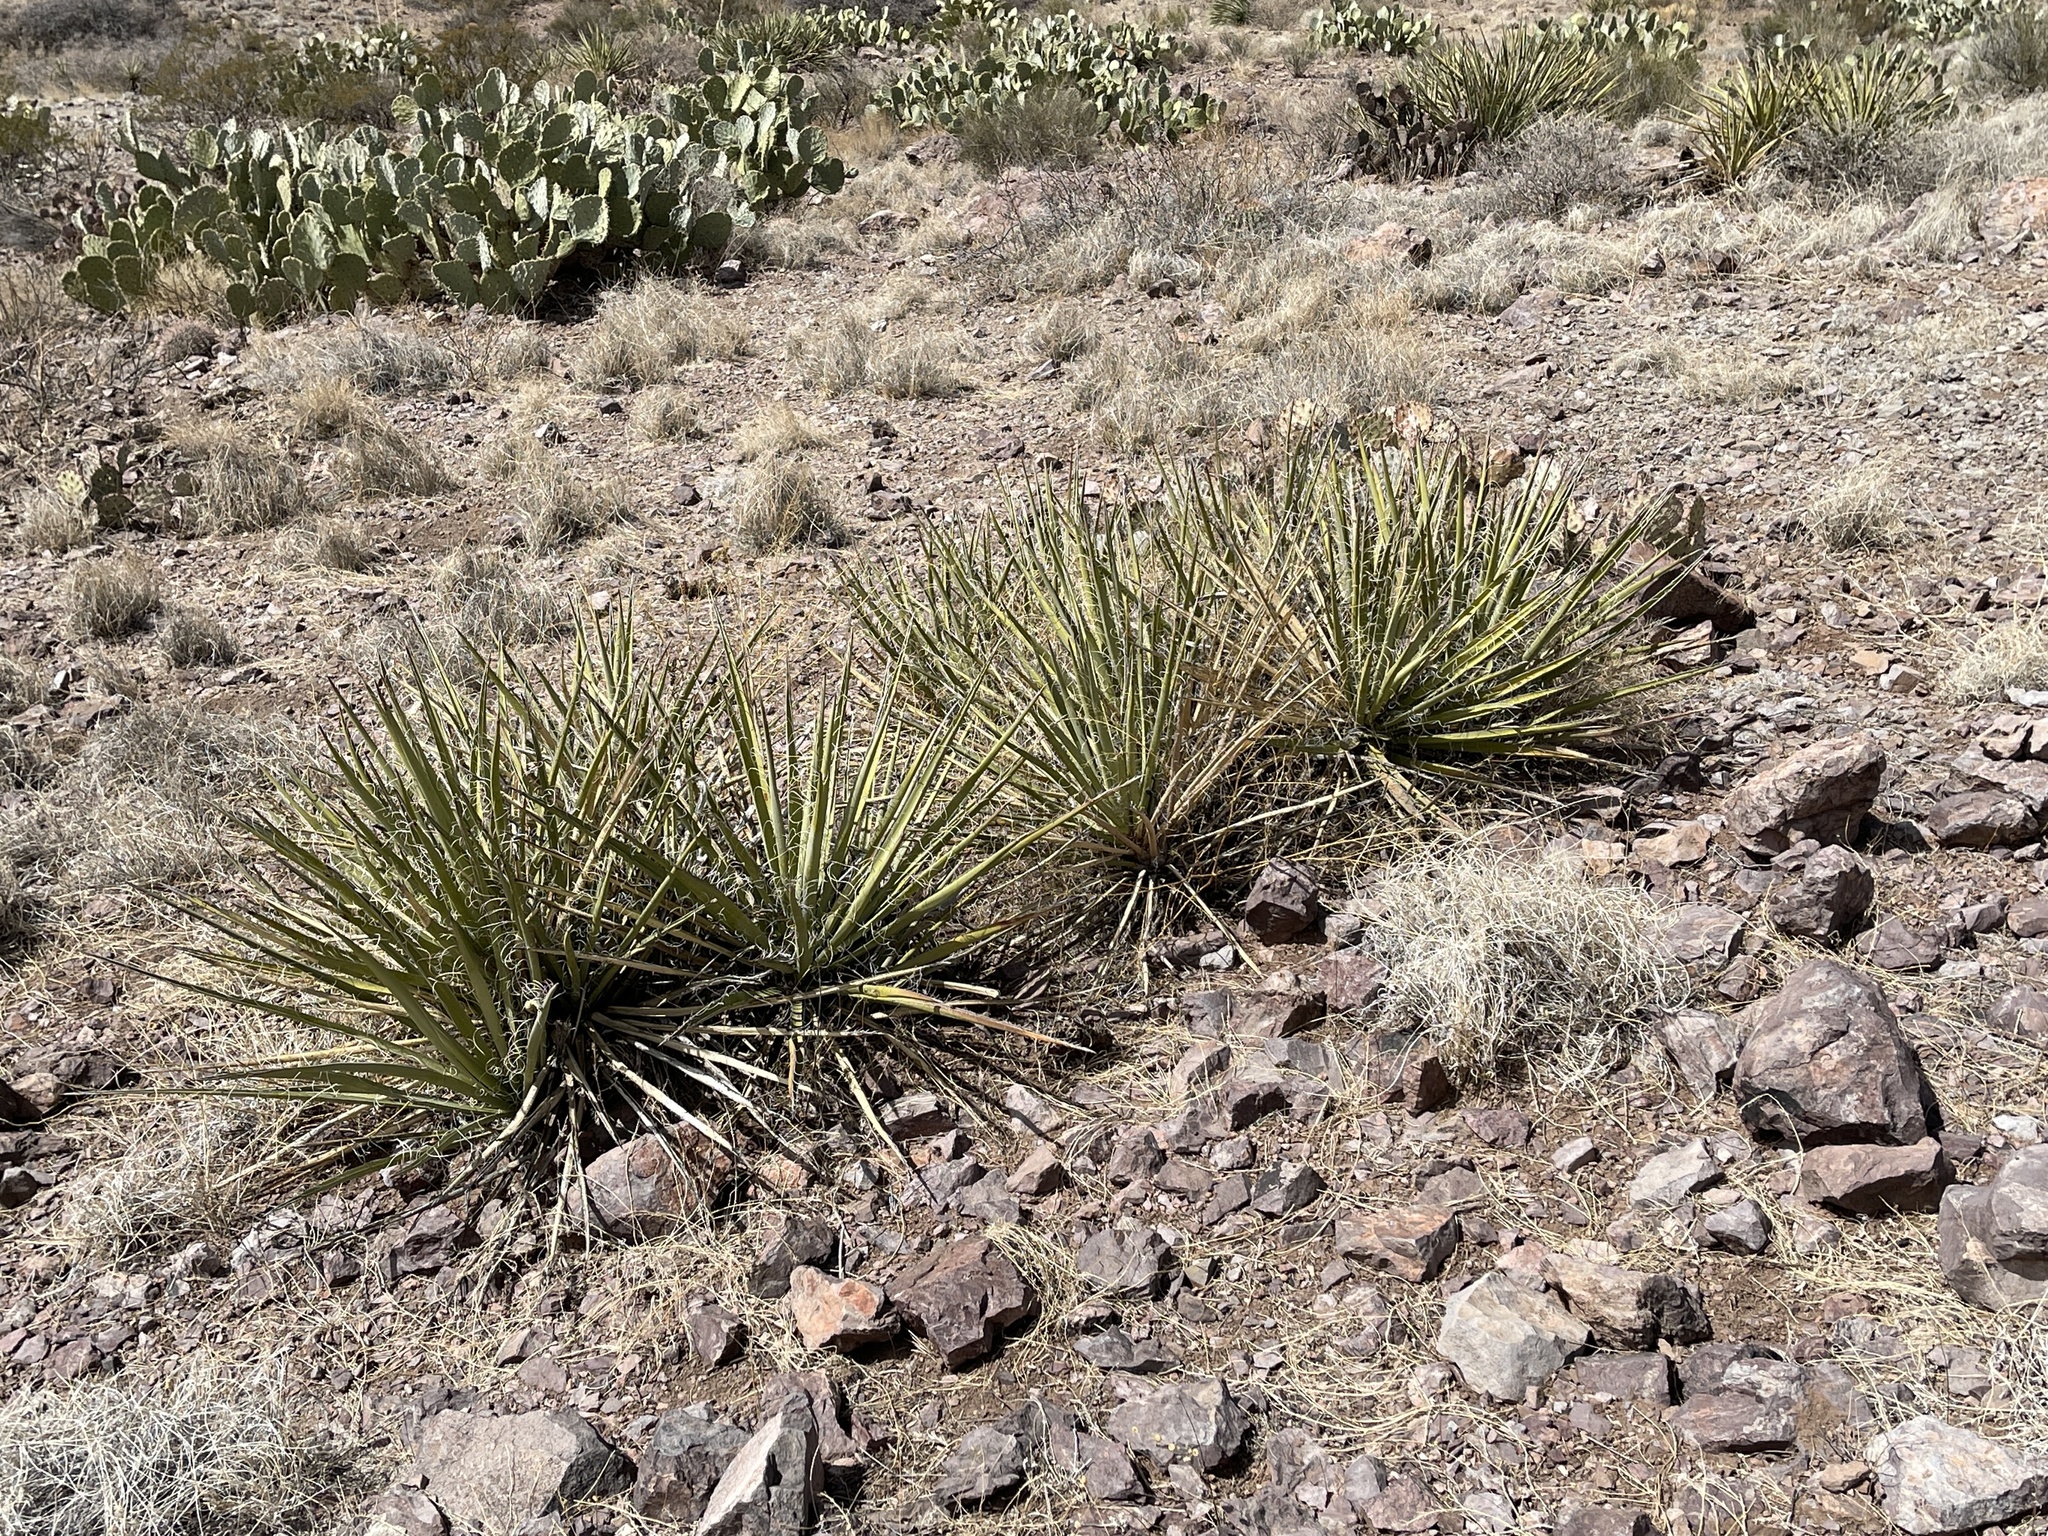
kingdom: Plantae
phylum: Tracheophyta
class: Liliopsida
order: Asparagales
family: Asparagaceae
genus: Yucca
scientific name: Yucca baccata
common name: Banana yucca
